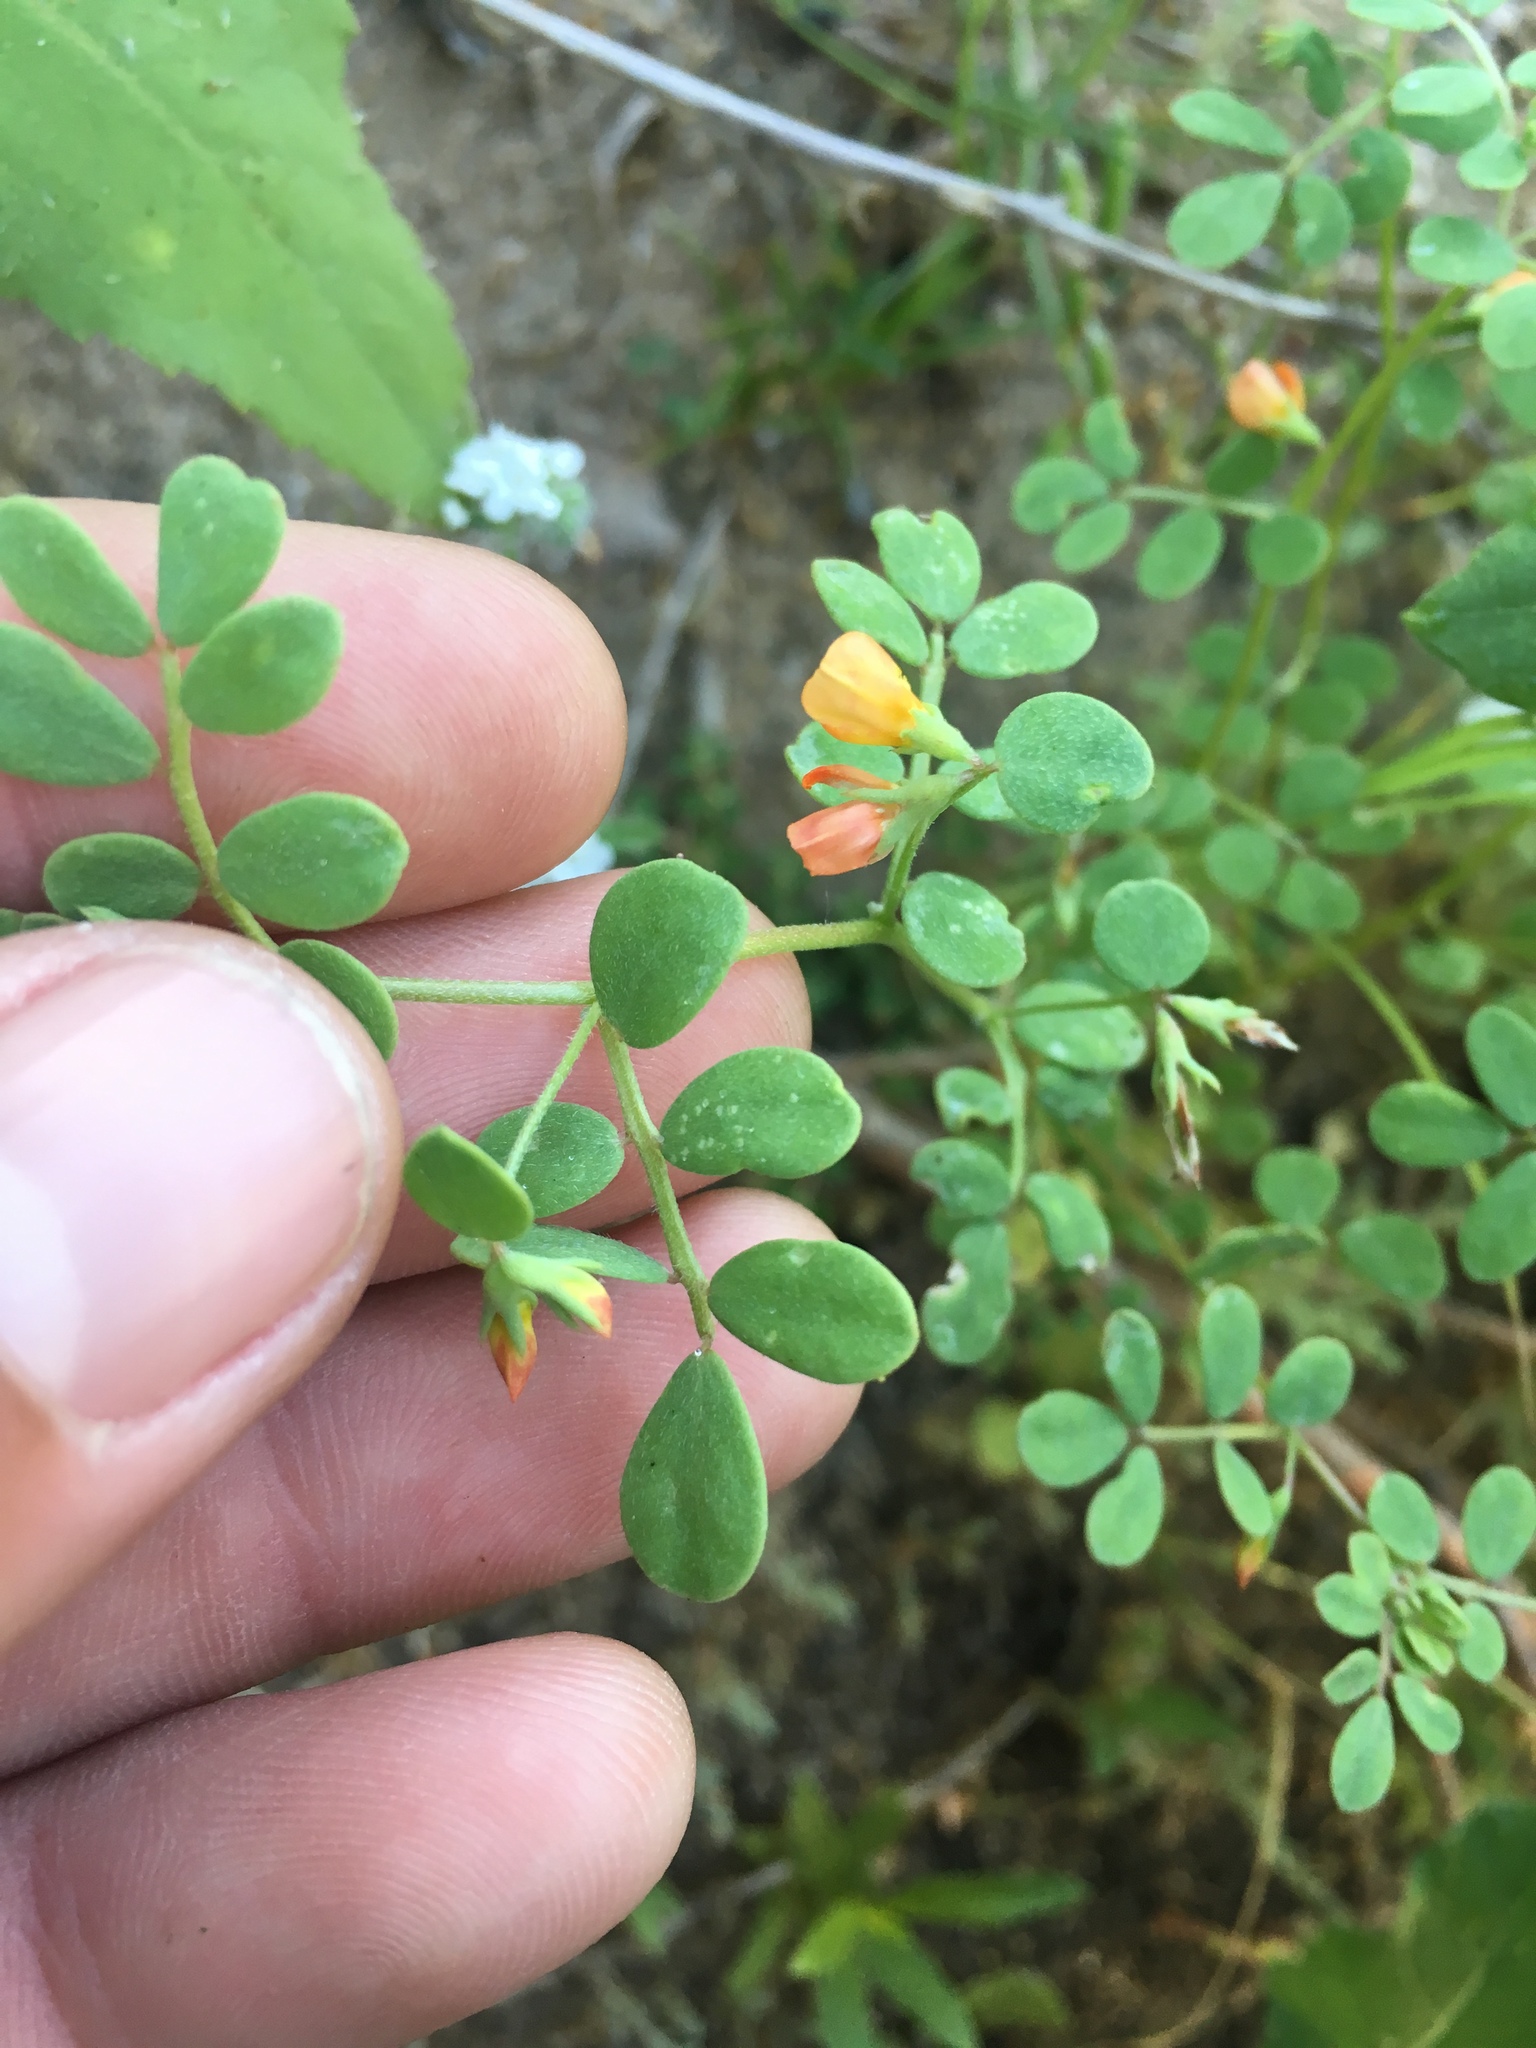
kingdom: Plantae
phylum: Tracheophyta
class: Magnoliopsida
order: Fabales
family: Fabaceae
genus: Acmispon
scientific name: Acmispon maritimus
